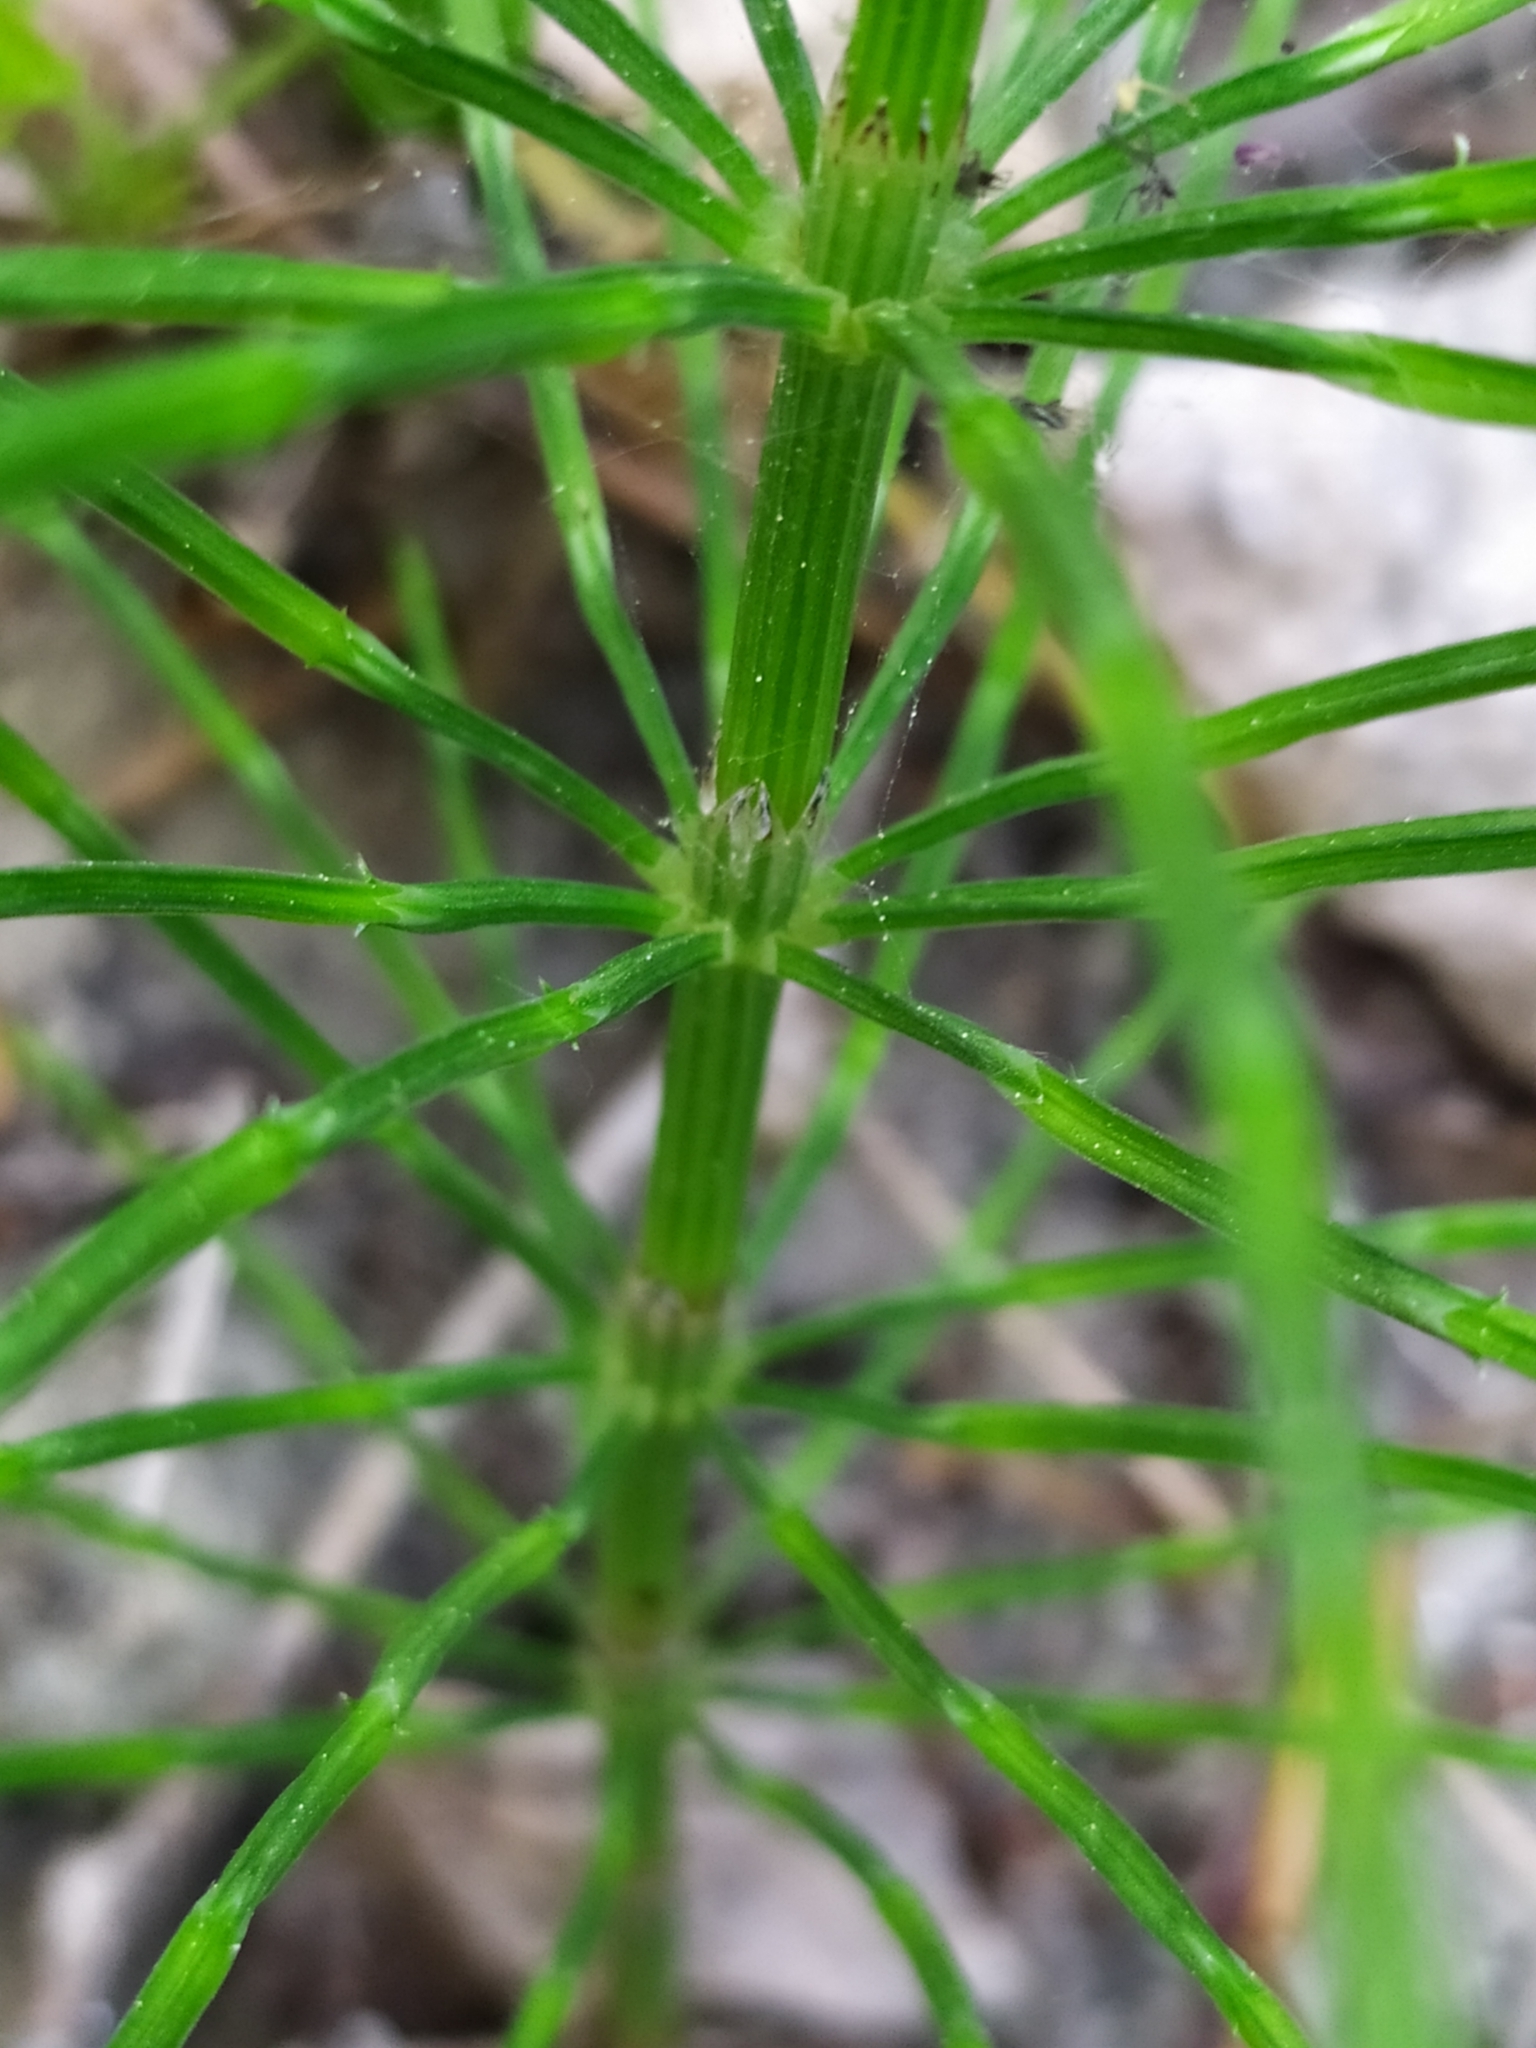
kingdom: Plantae
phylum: Tracheophyta
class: Polypodiopsida
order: Equisetales
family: Equisetaceae
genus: Equisetum
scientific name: Equisetum arvense
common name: Field horsetail
